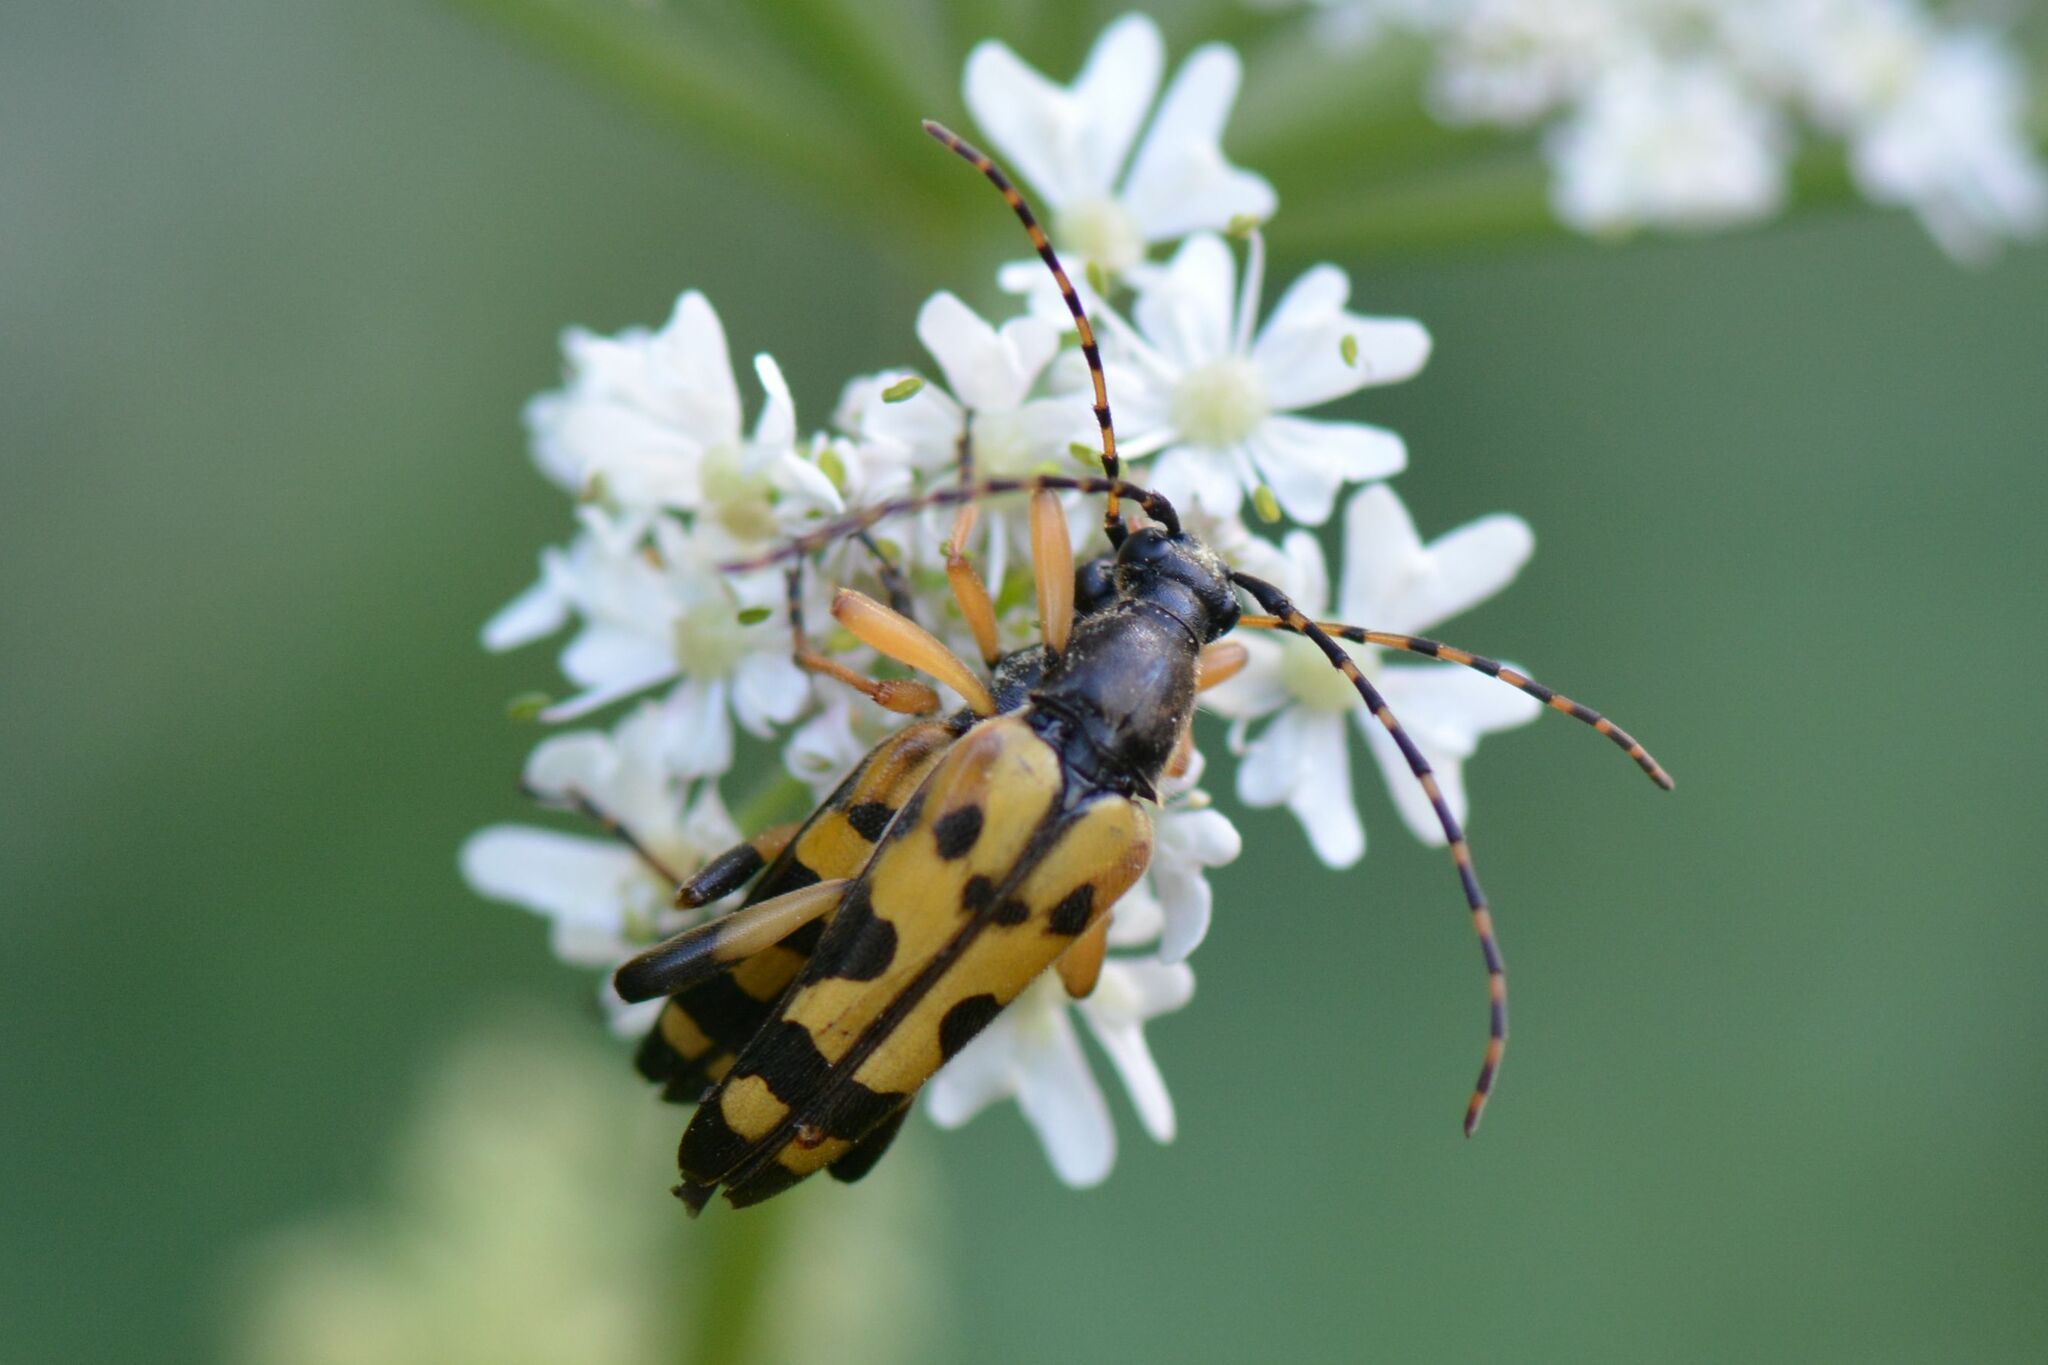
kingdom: Animalia
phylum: Arthropoda
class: Insecta
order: Coleoptera
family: Cerambycidae
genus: Rutpela
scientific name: Rutpela maculata
